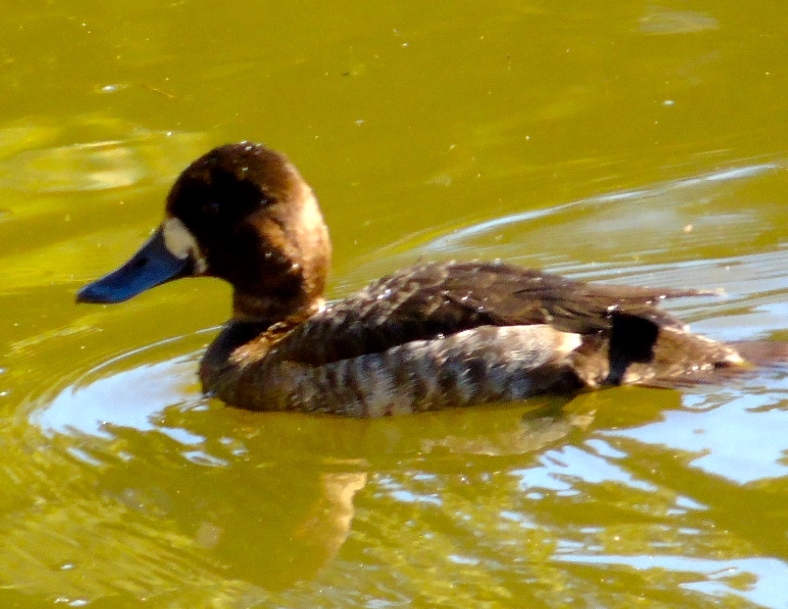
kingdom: Animalia
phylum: Chordata
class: Aves
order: Anseriformes
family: Anatidae
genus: Aythya
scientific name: Aythya affinis
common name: Lesser scaup
